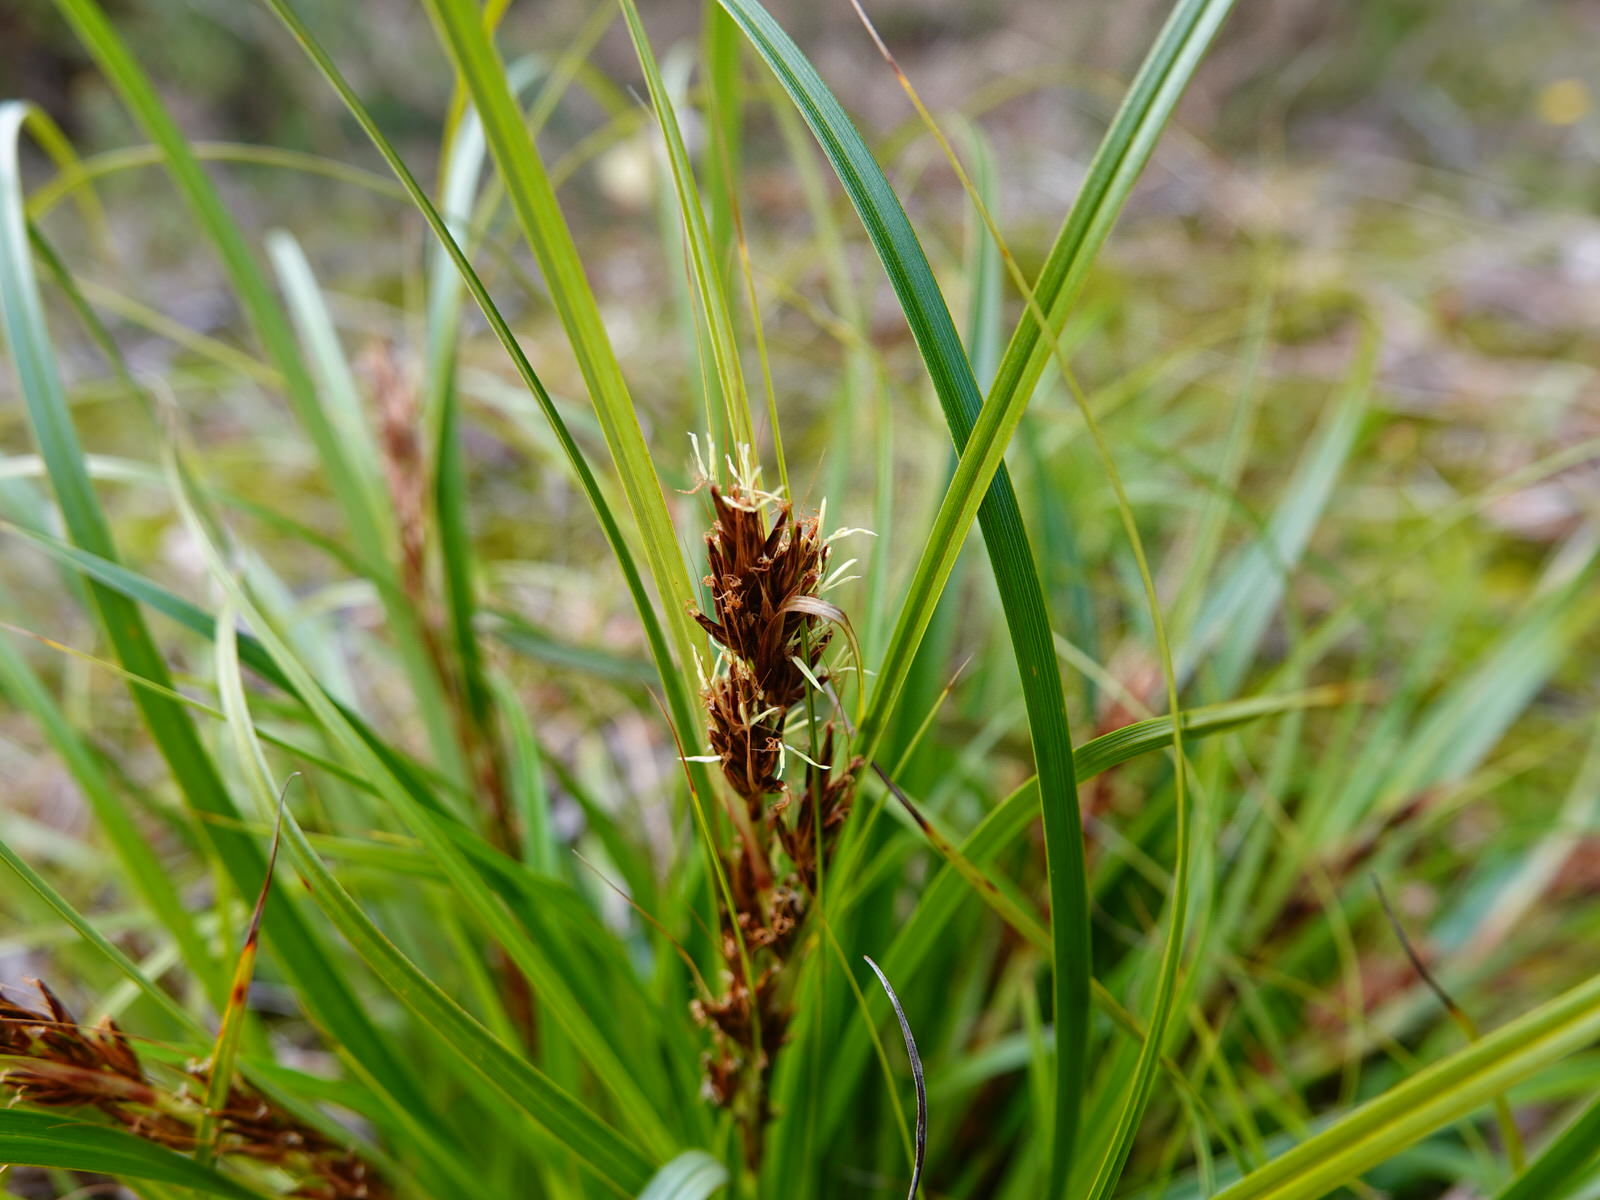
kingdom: Plantae
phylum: Tracheophyta
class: Liliopsida
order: Poales
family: Cyperaceae
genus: Morelotia
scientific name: Morelotia affinis
